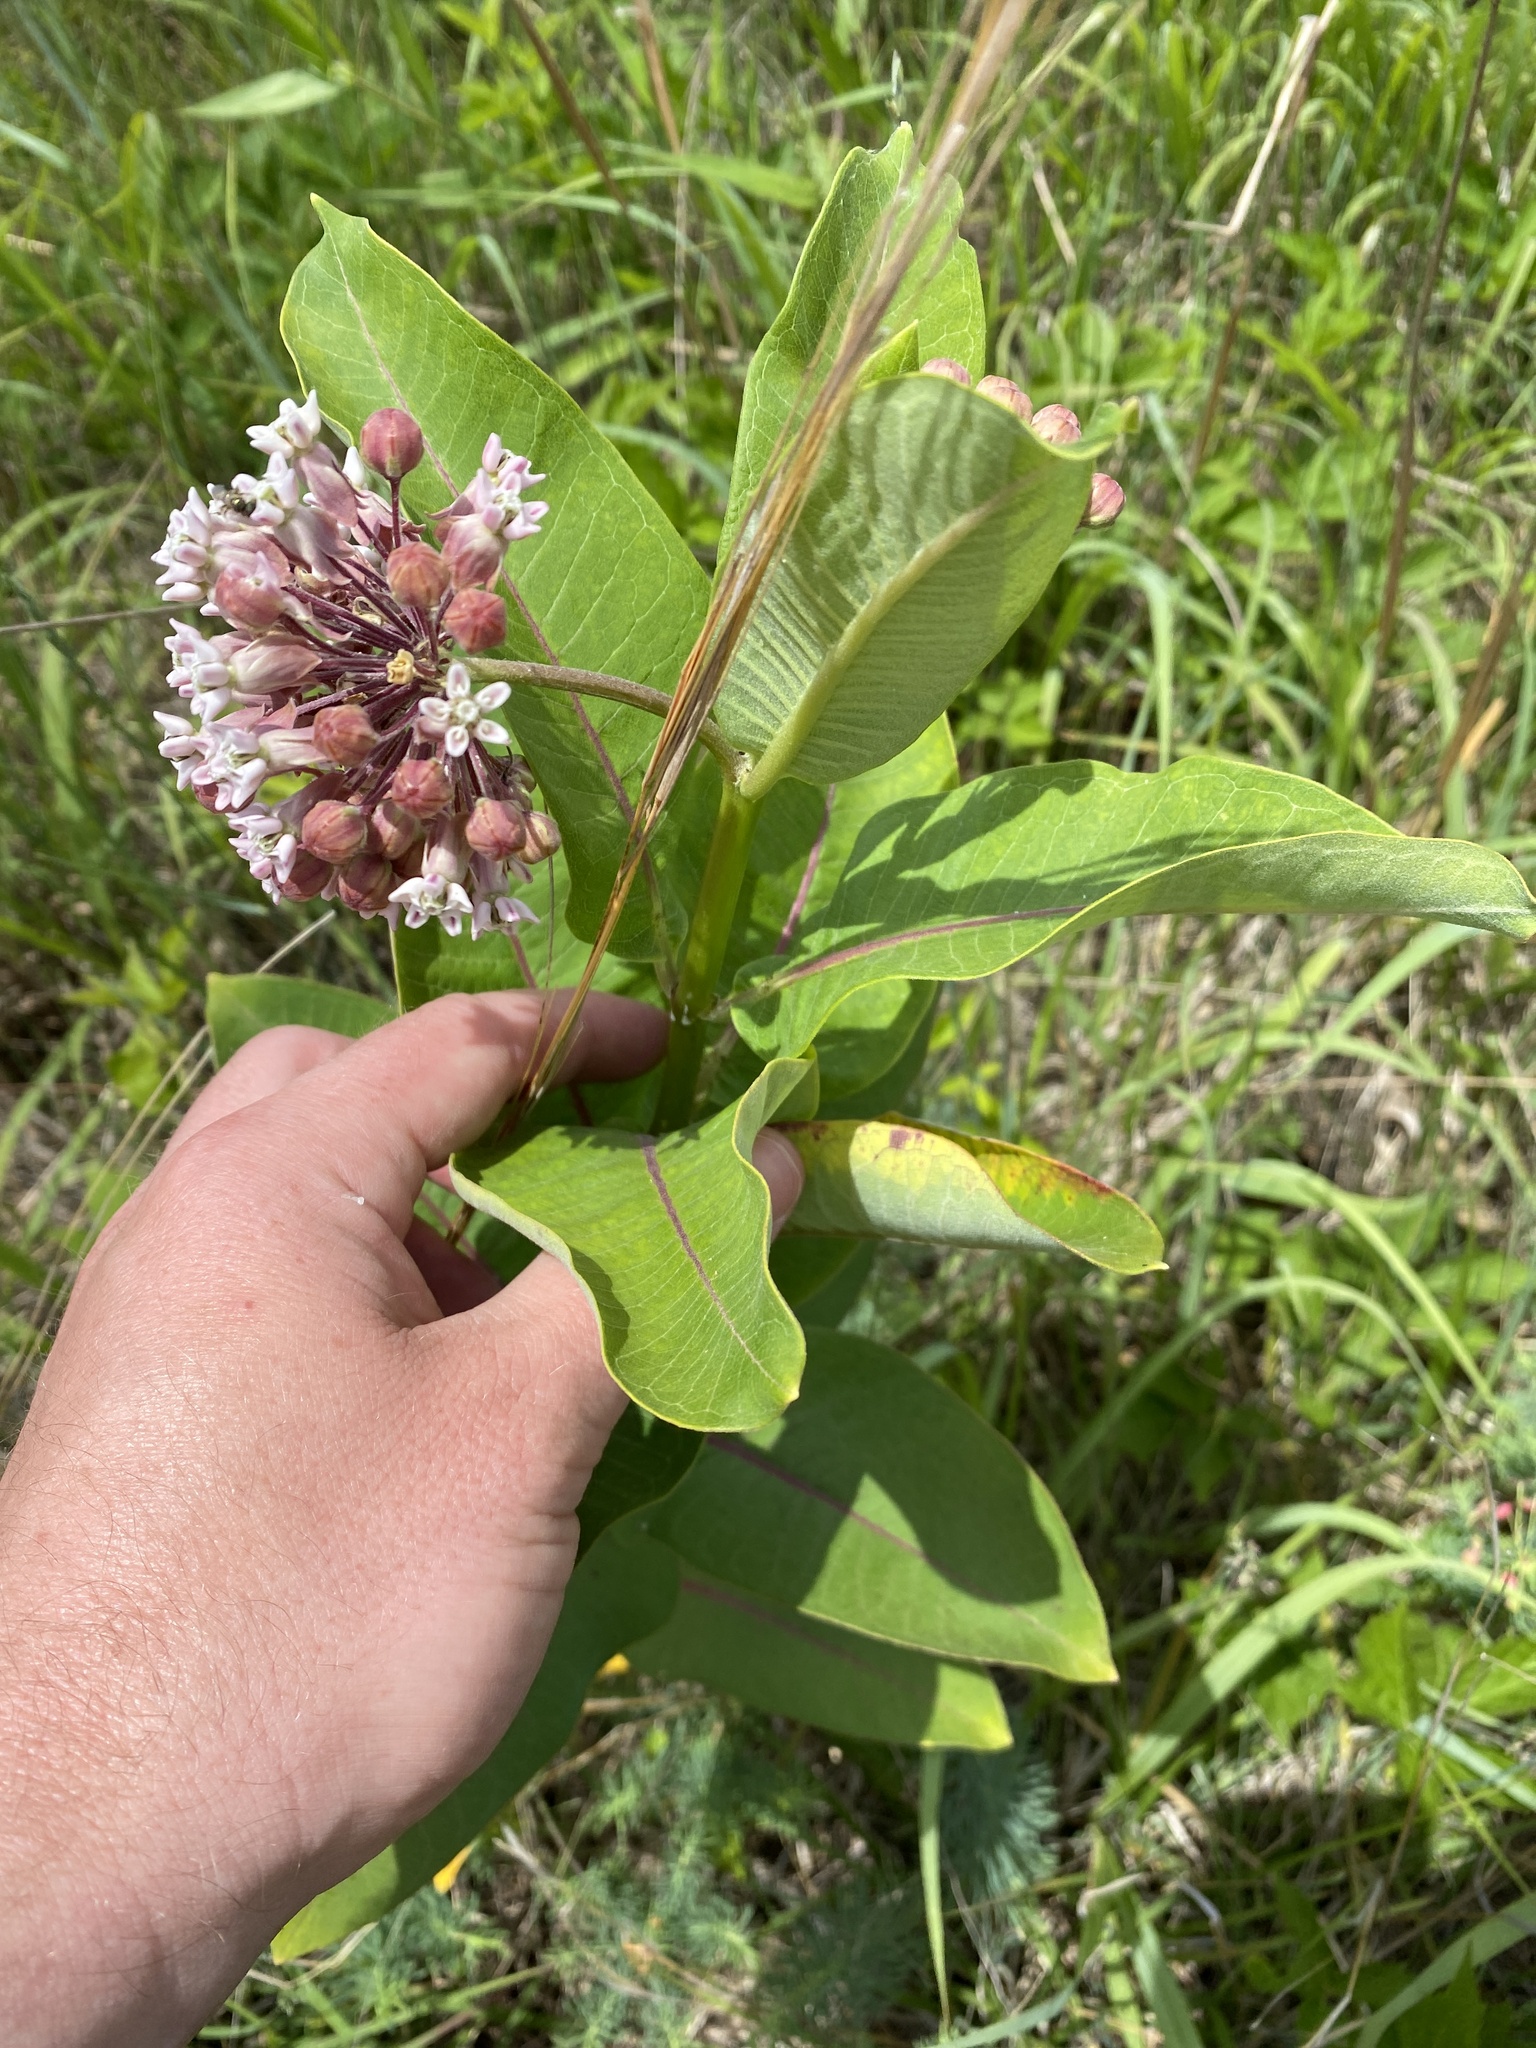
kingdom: Plantae
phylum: Tracheophyta
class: Magnoliopsida
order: Gentianales
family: Apocynaceae
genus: Asclepias
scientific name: Asclepias syriaca
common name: Common milkweed
